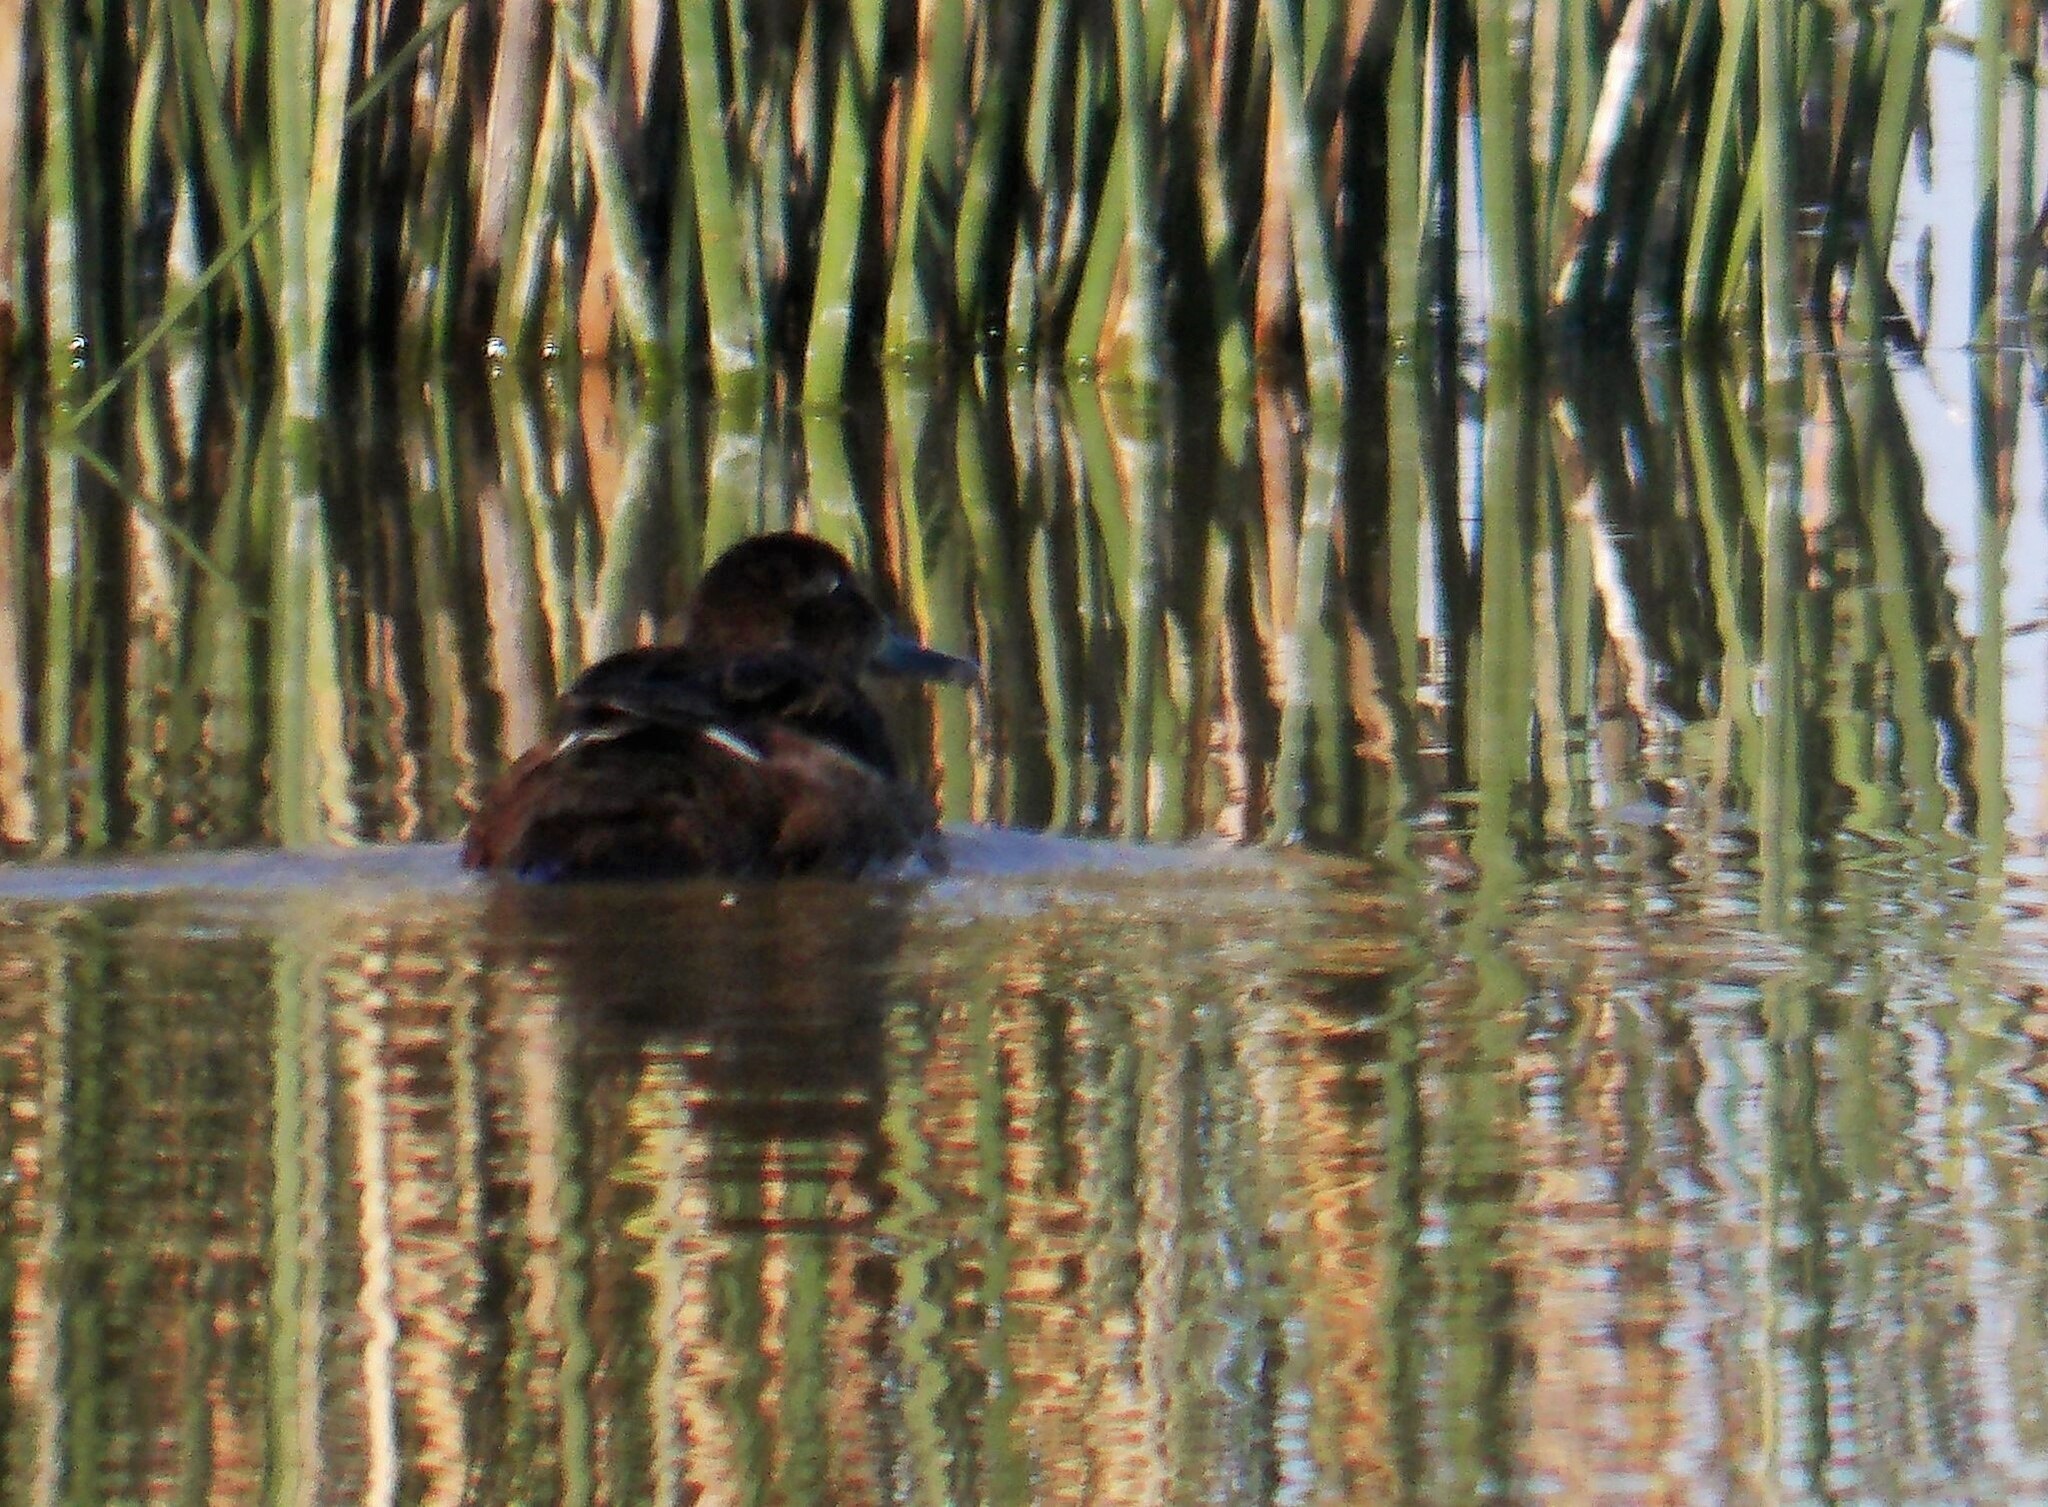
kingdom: Animalia
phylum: Chordata
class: Aves
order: Anseriformes
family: Anatidae
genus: Heteronetta
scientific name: Heteronetta atricapilla
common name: Black-headed duck
